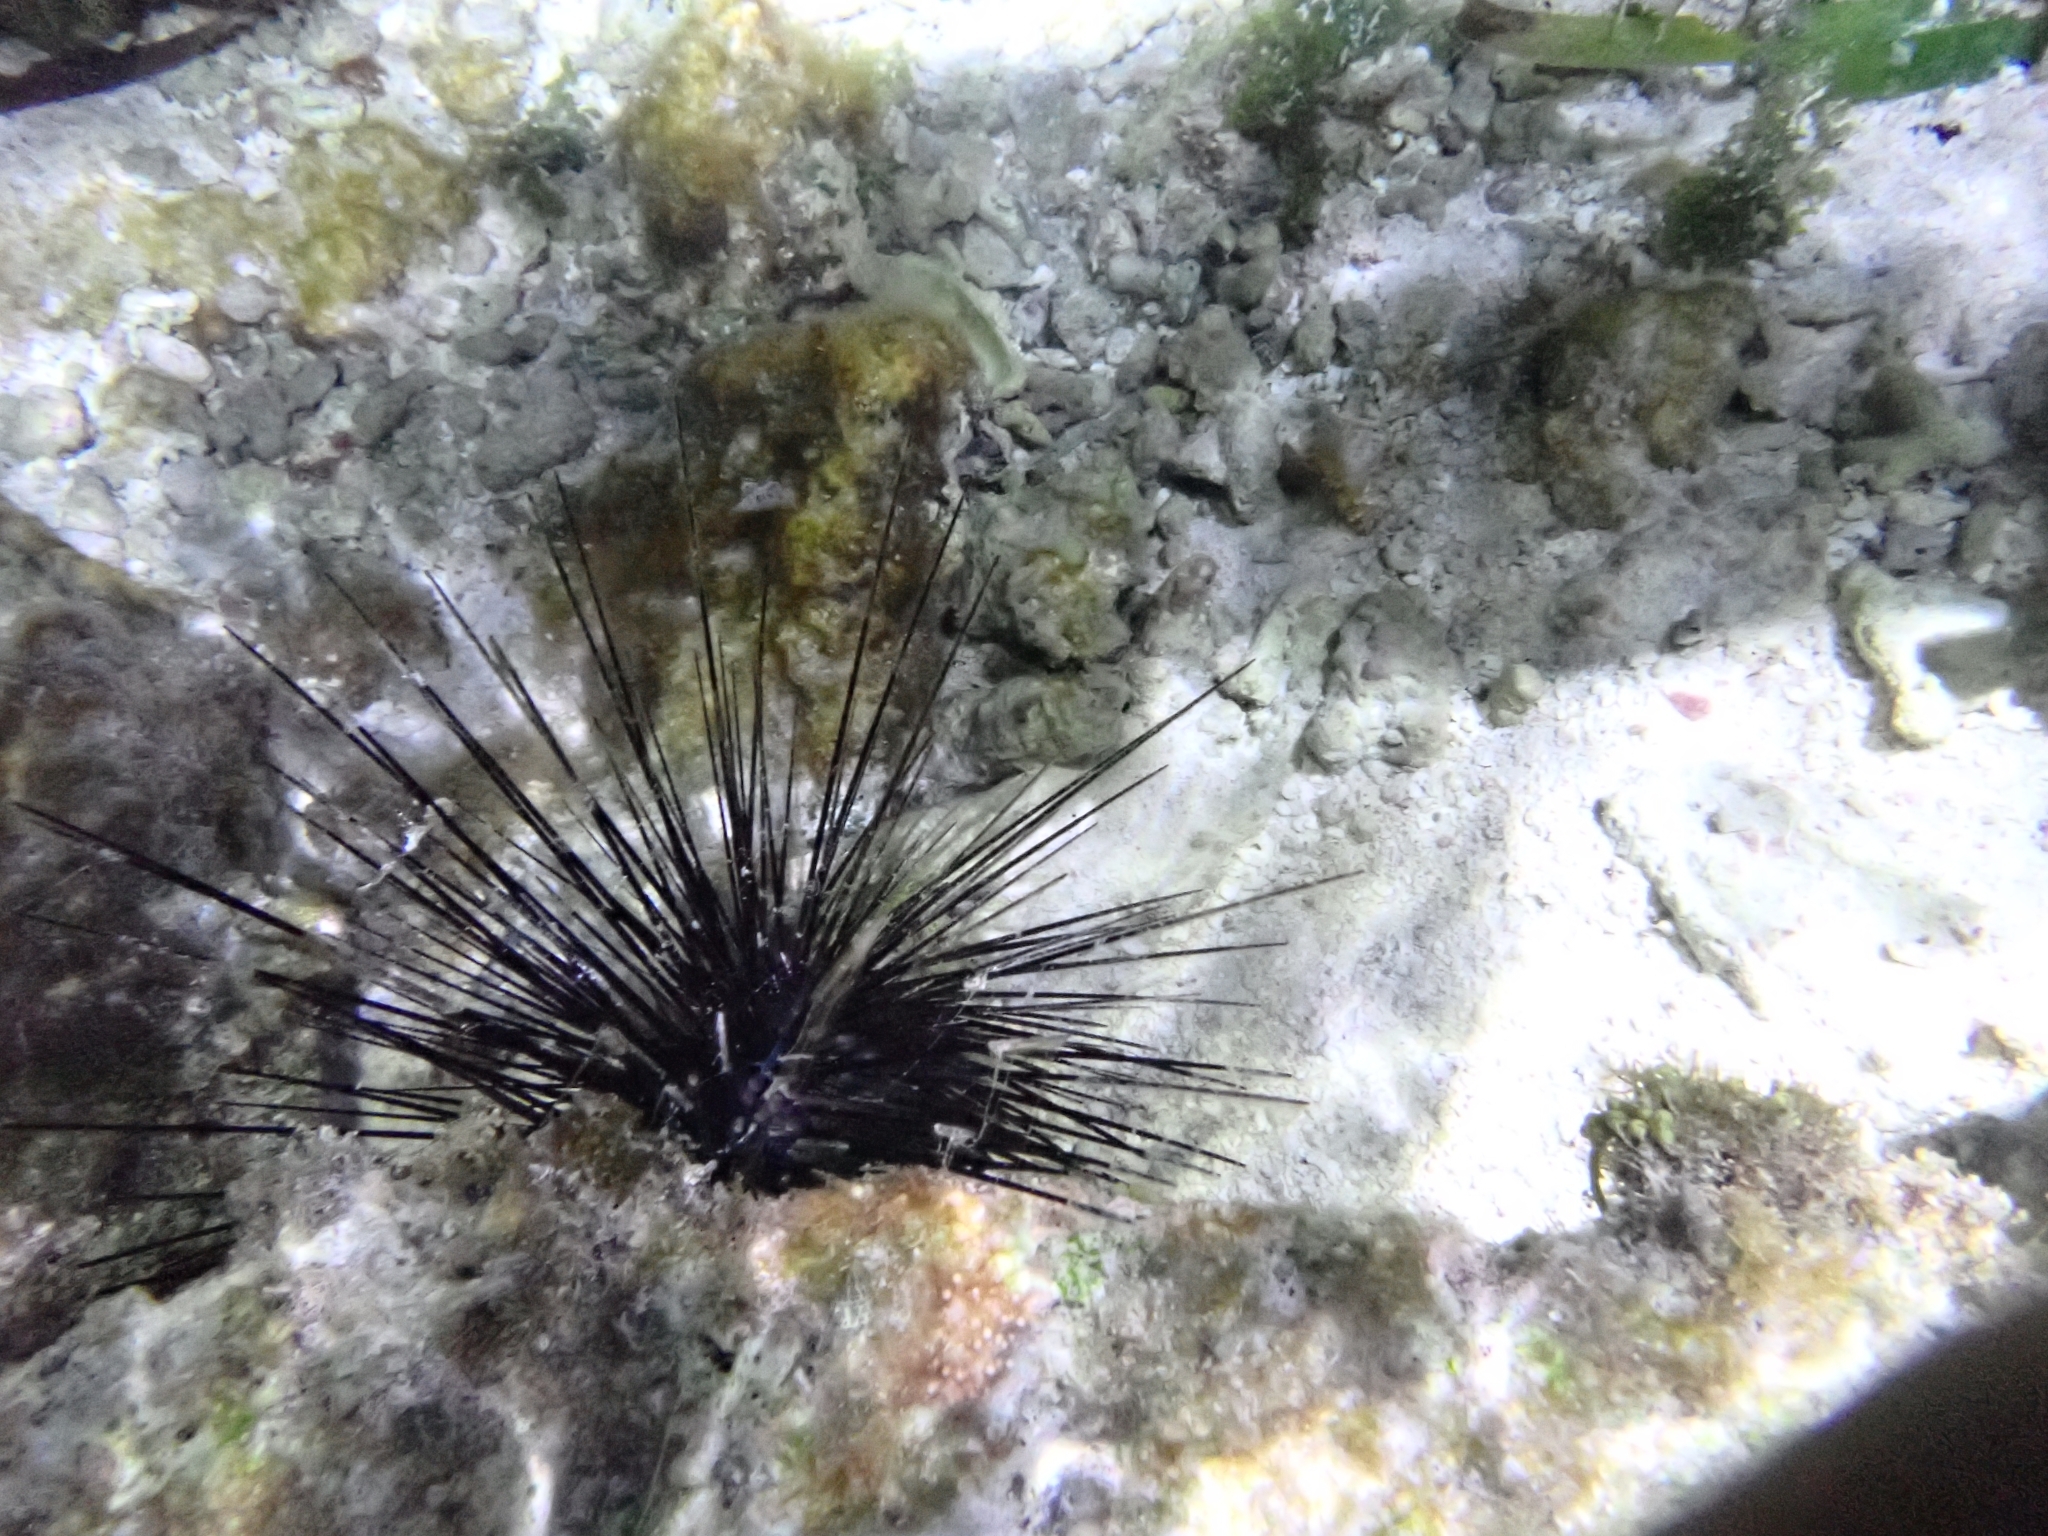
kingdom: Animalia
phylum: Echinodermata
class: Echinoidea
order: Diadematoida
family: Diadematidae
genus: Diadema
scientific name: Diadema antillarum
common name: Spiny urchin
